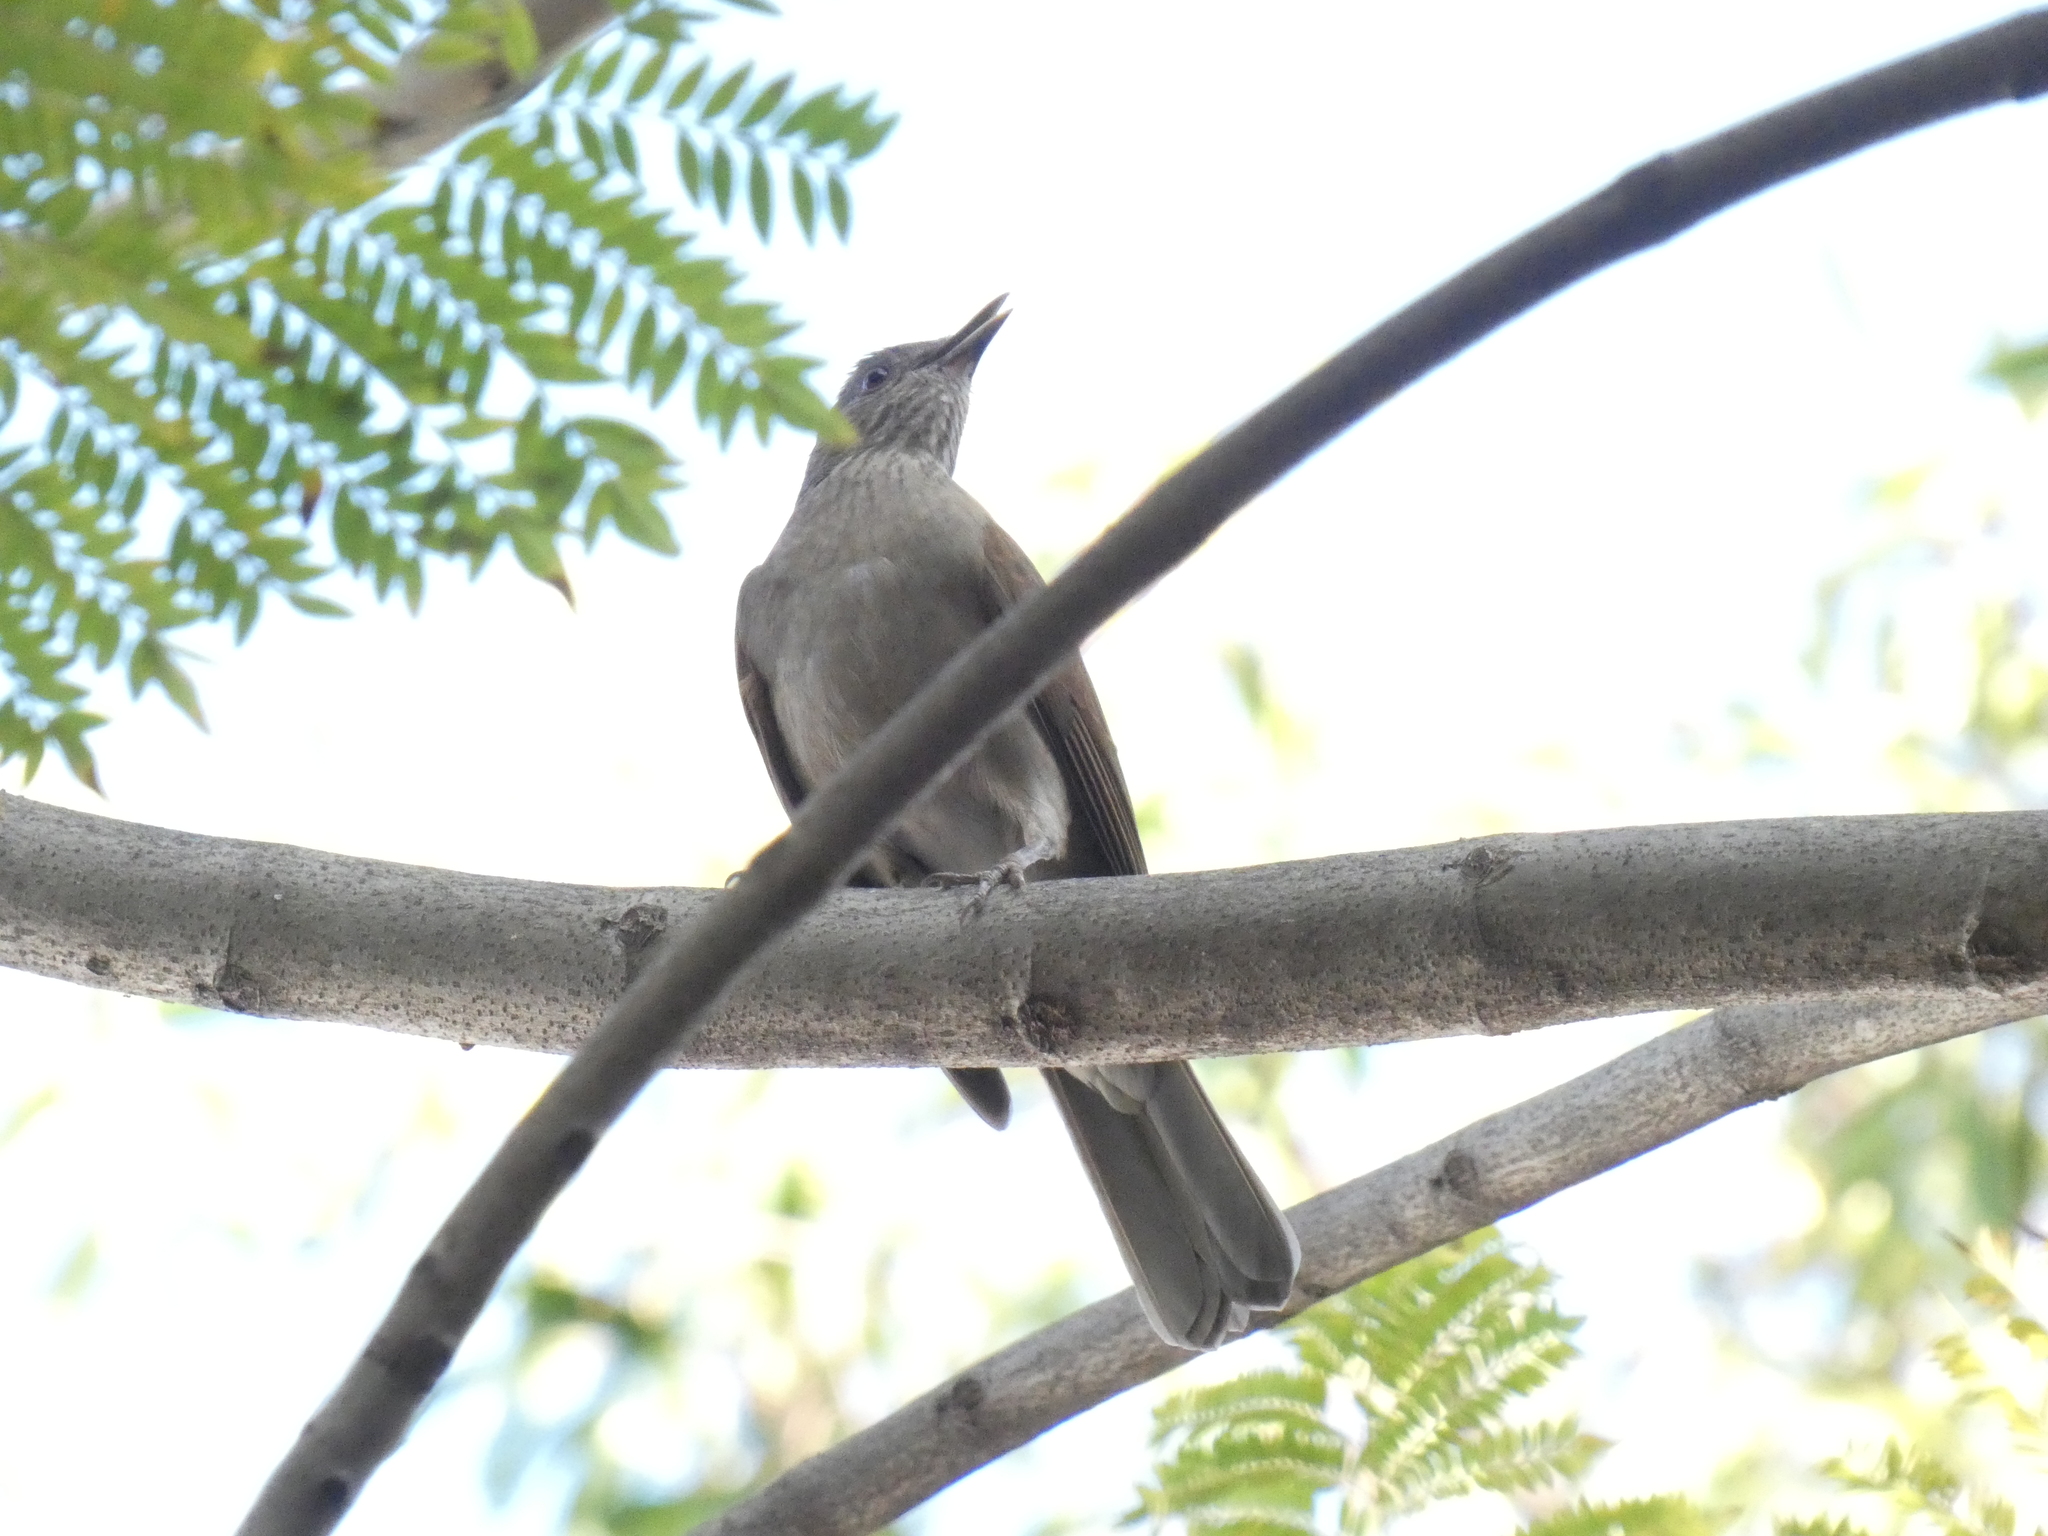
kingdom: Animalia
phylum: Chordata
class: Aves
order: Passeriformes
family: Turdidae
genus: Turdus
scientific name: Turdus leucomelas
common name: Pale-breasted thrush
